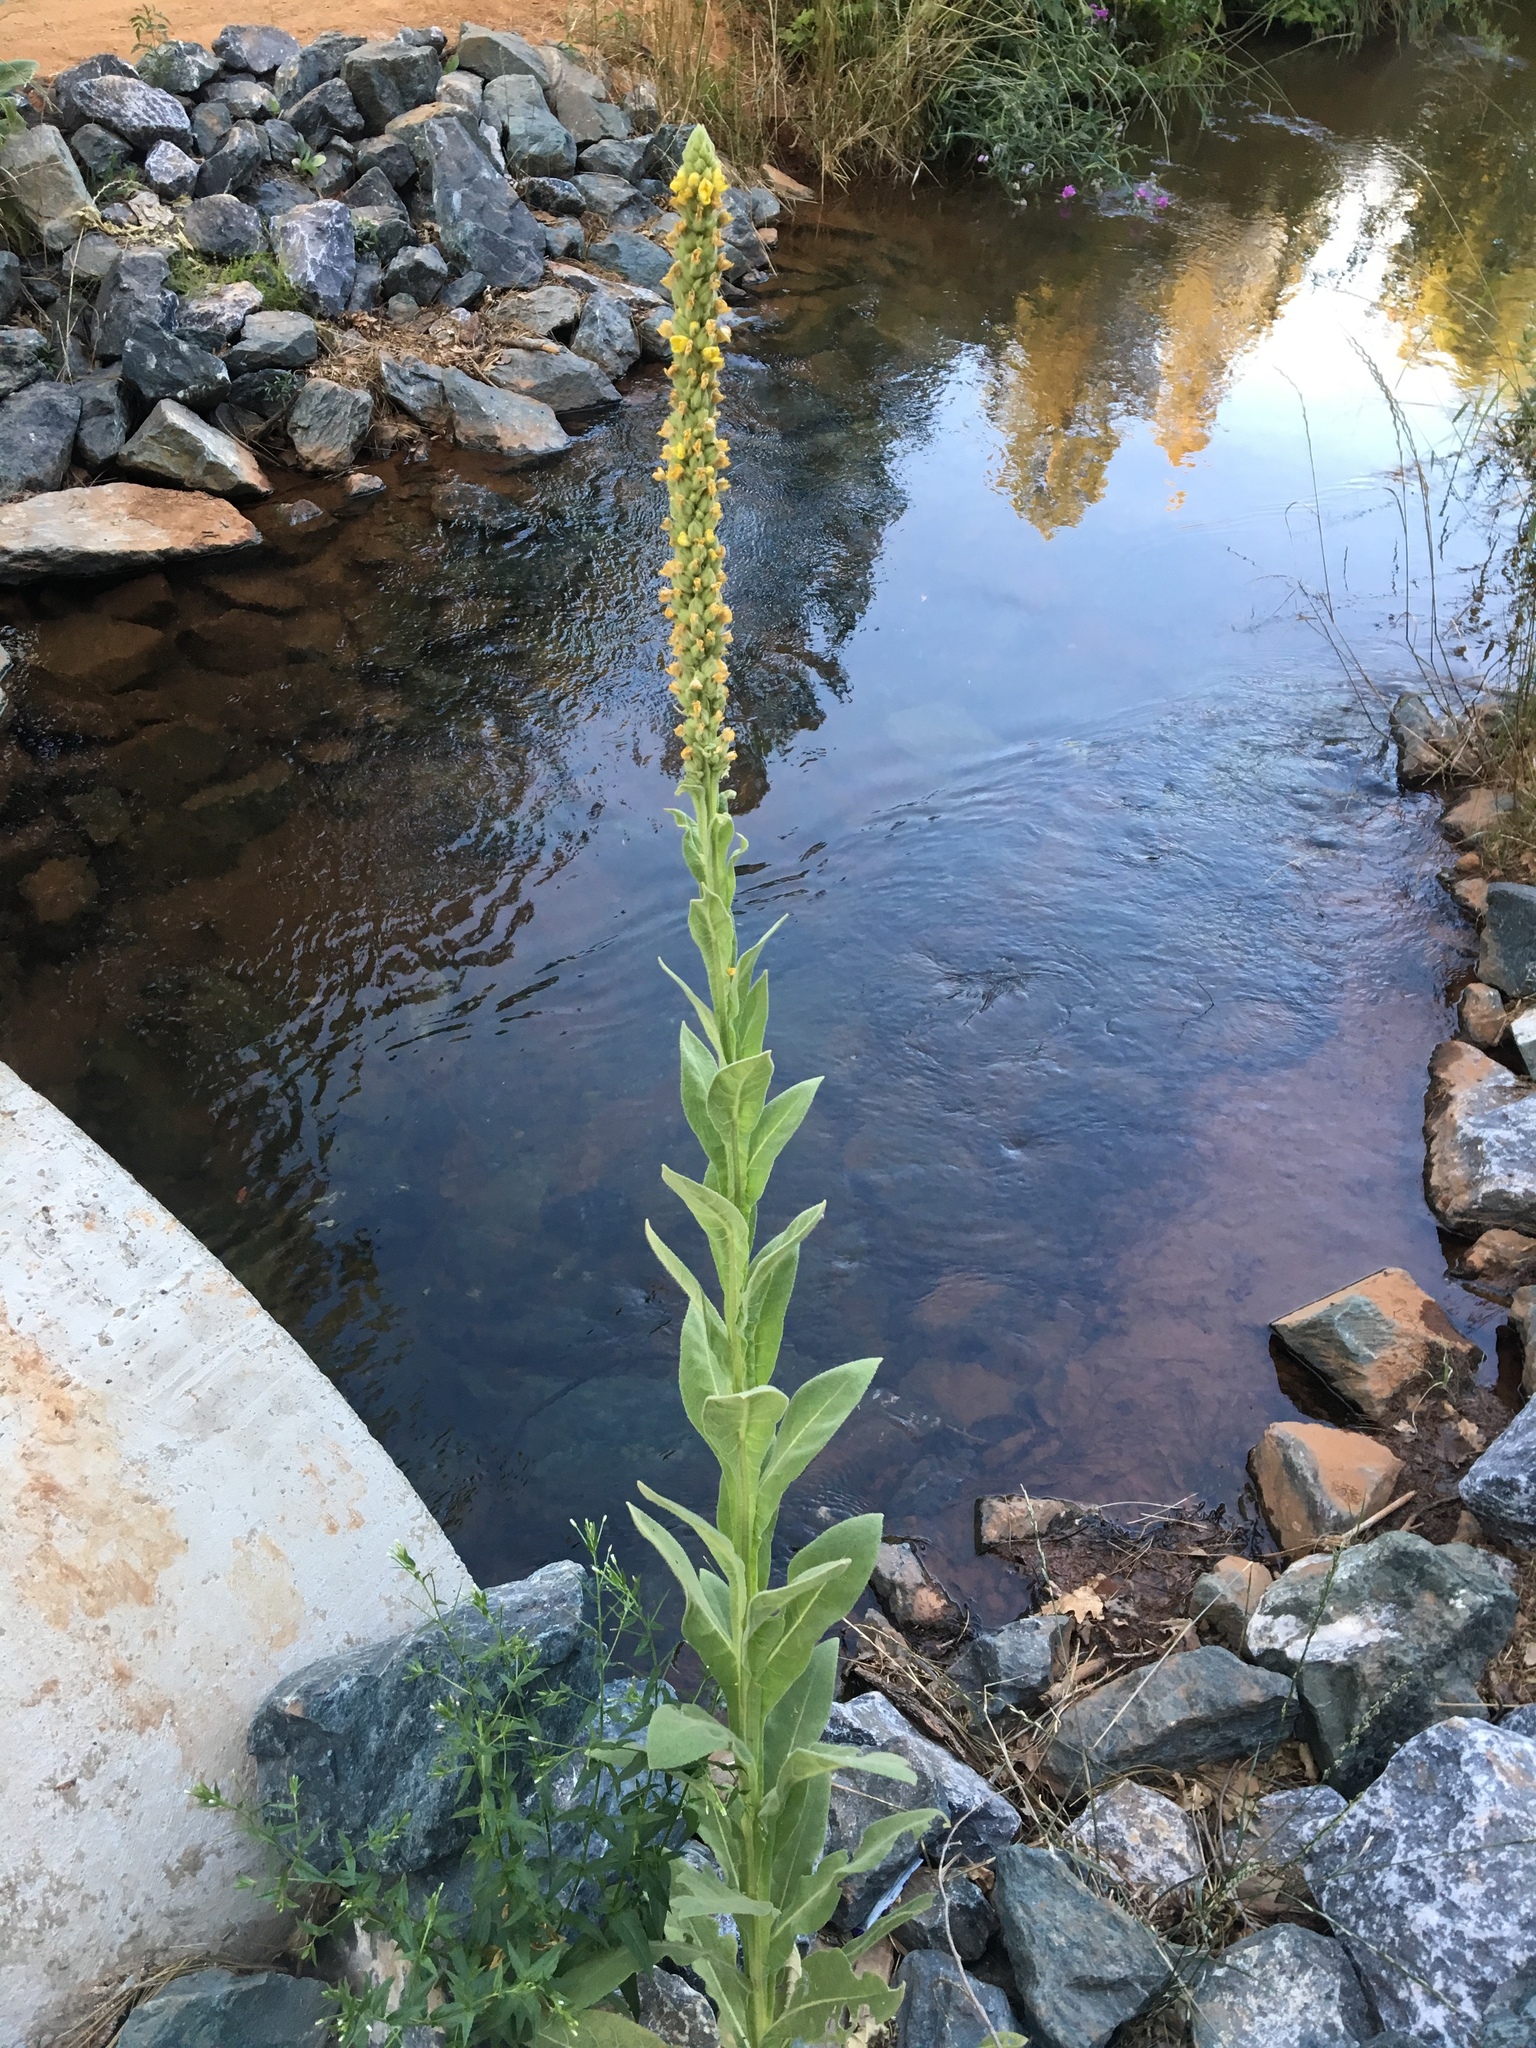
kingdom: Plantae
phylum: Tracheophyta
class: Magnoliopsida
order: Lamiales
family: Scrophulariaceae
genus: Verbascum
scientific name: Verbascum thapsus
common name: Common mullein
